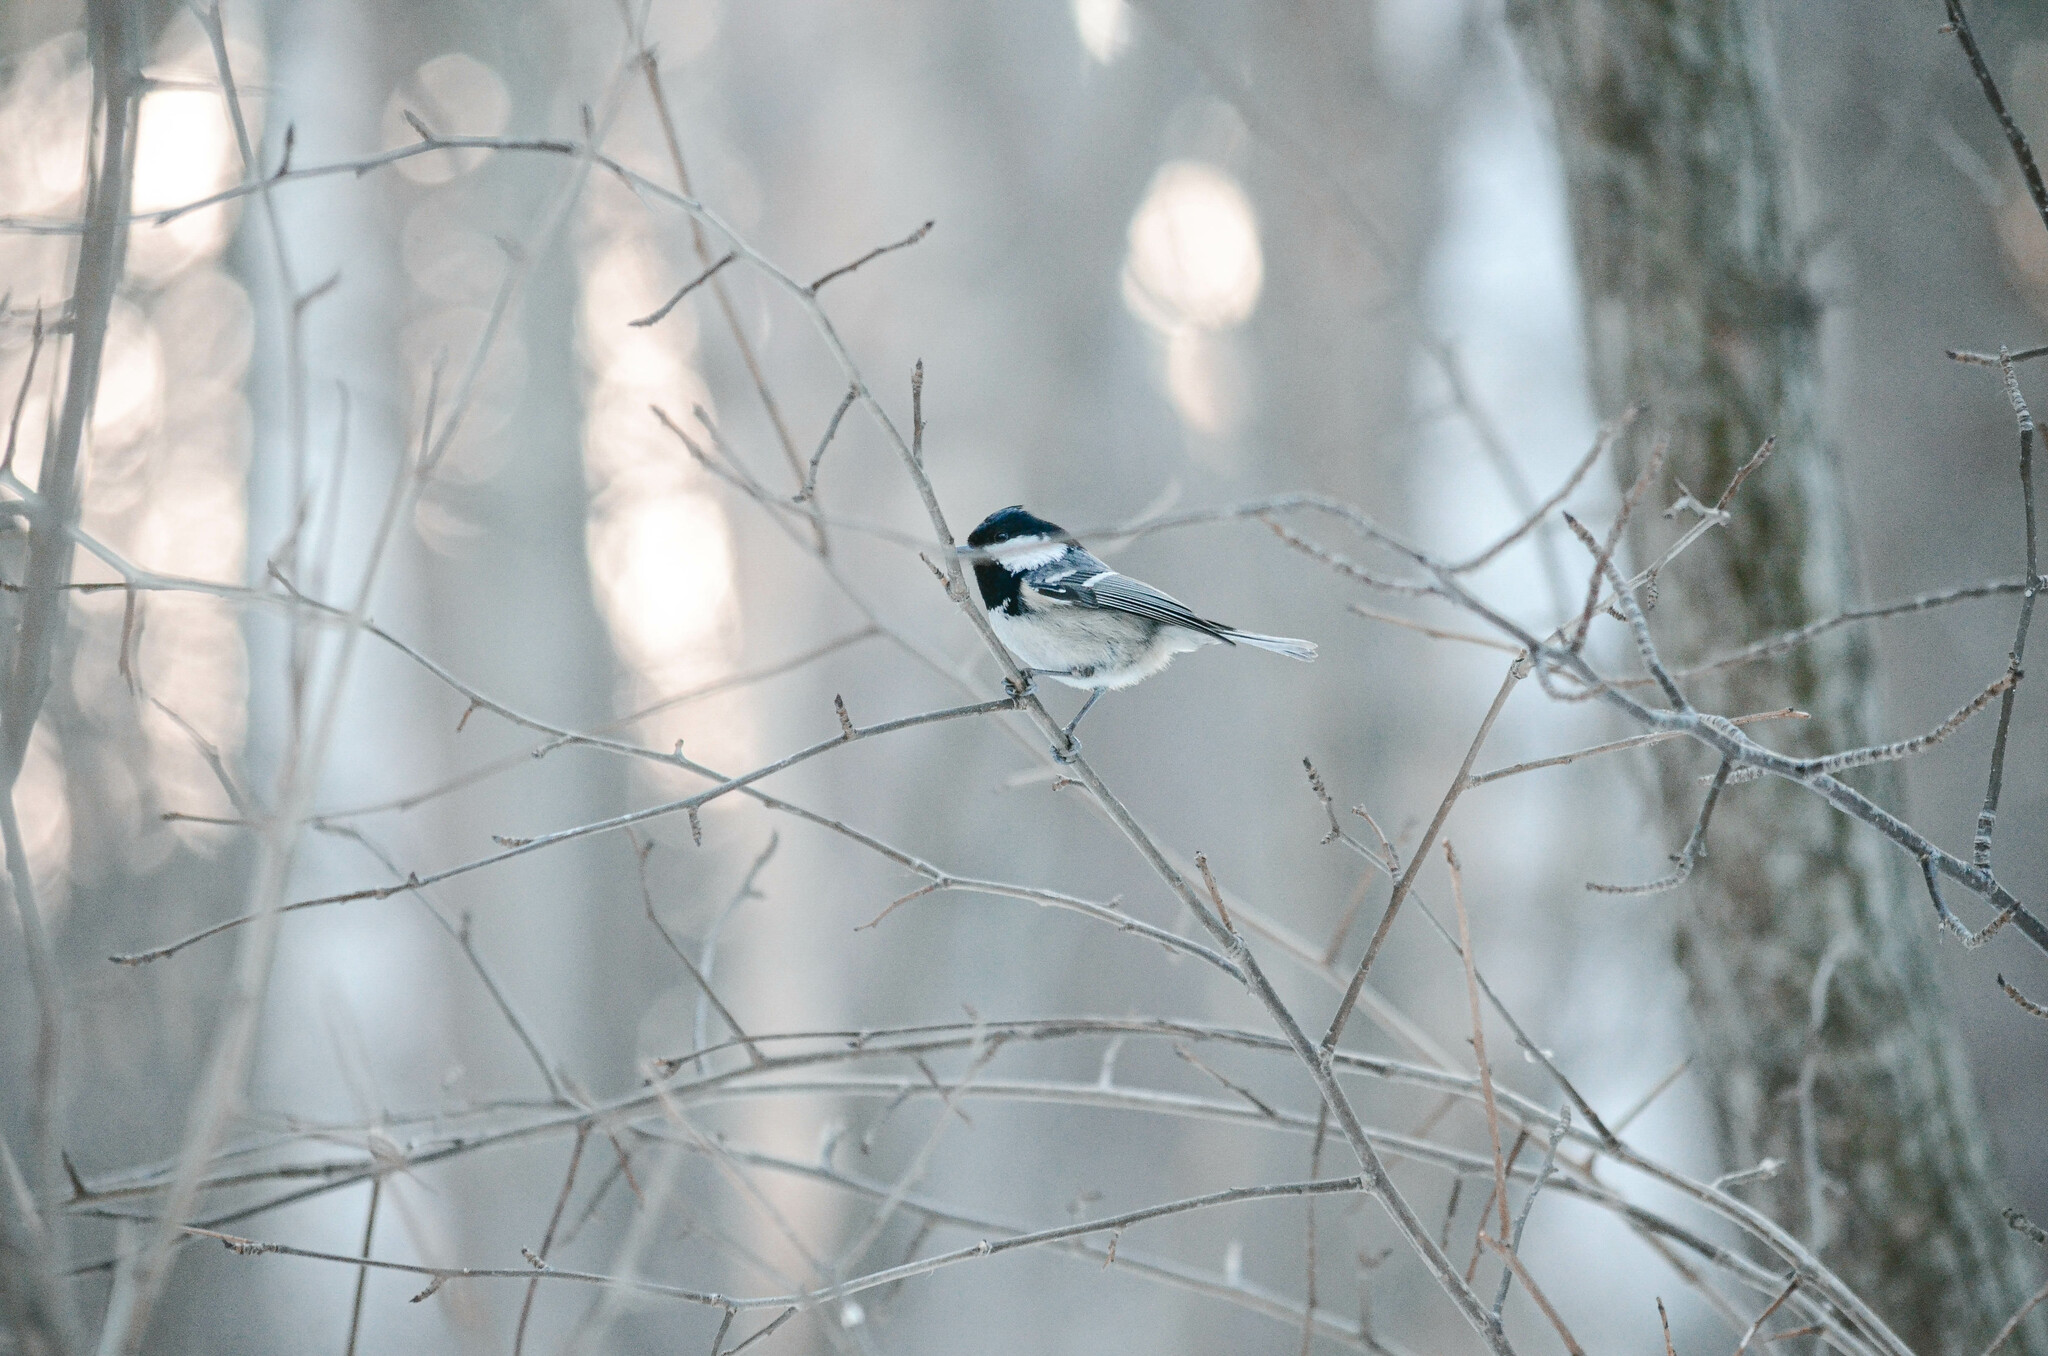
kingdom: Animalia
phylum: Chordata
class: Aves
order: Passeriformes
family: Paridae
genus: Periparus
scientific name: Periparus ater
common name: Coal tit
